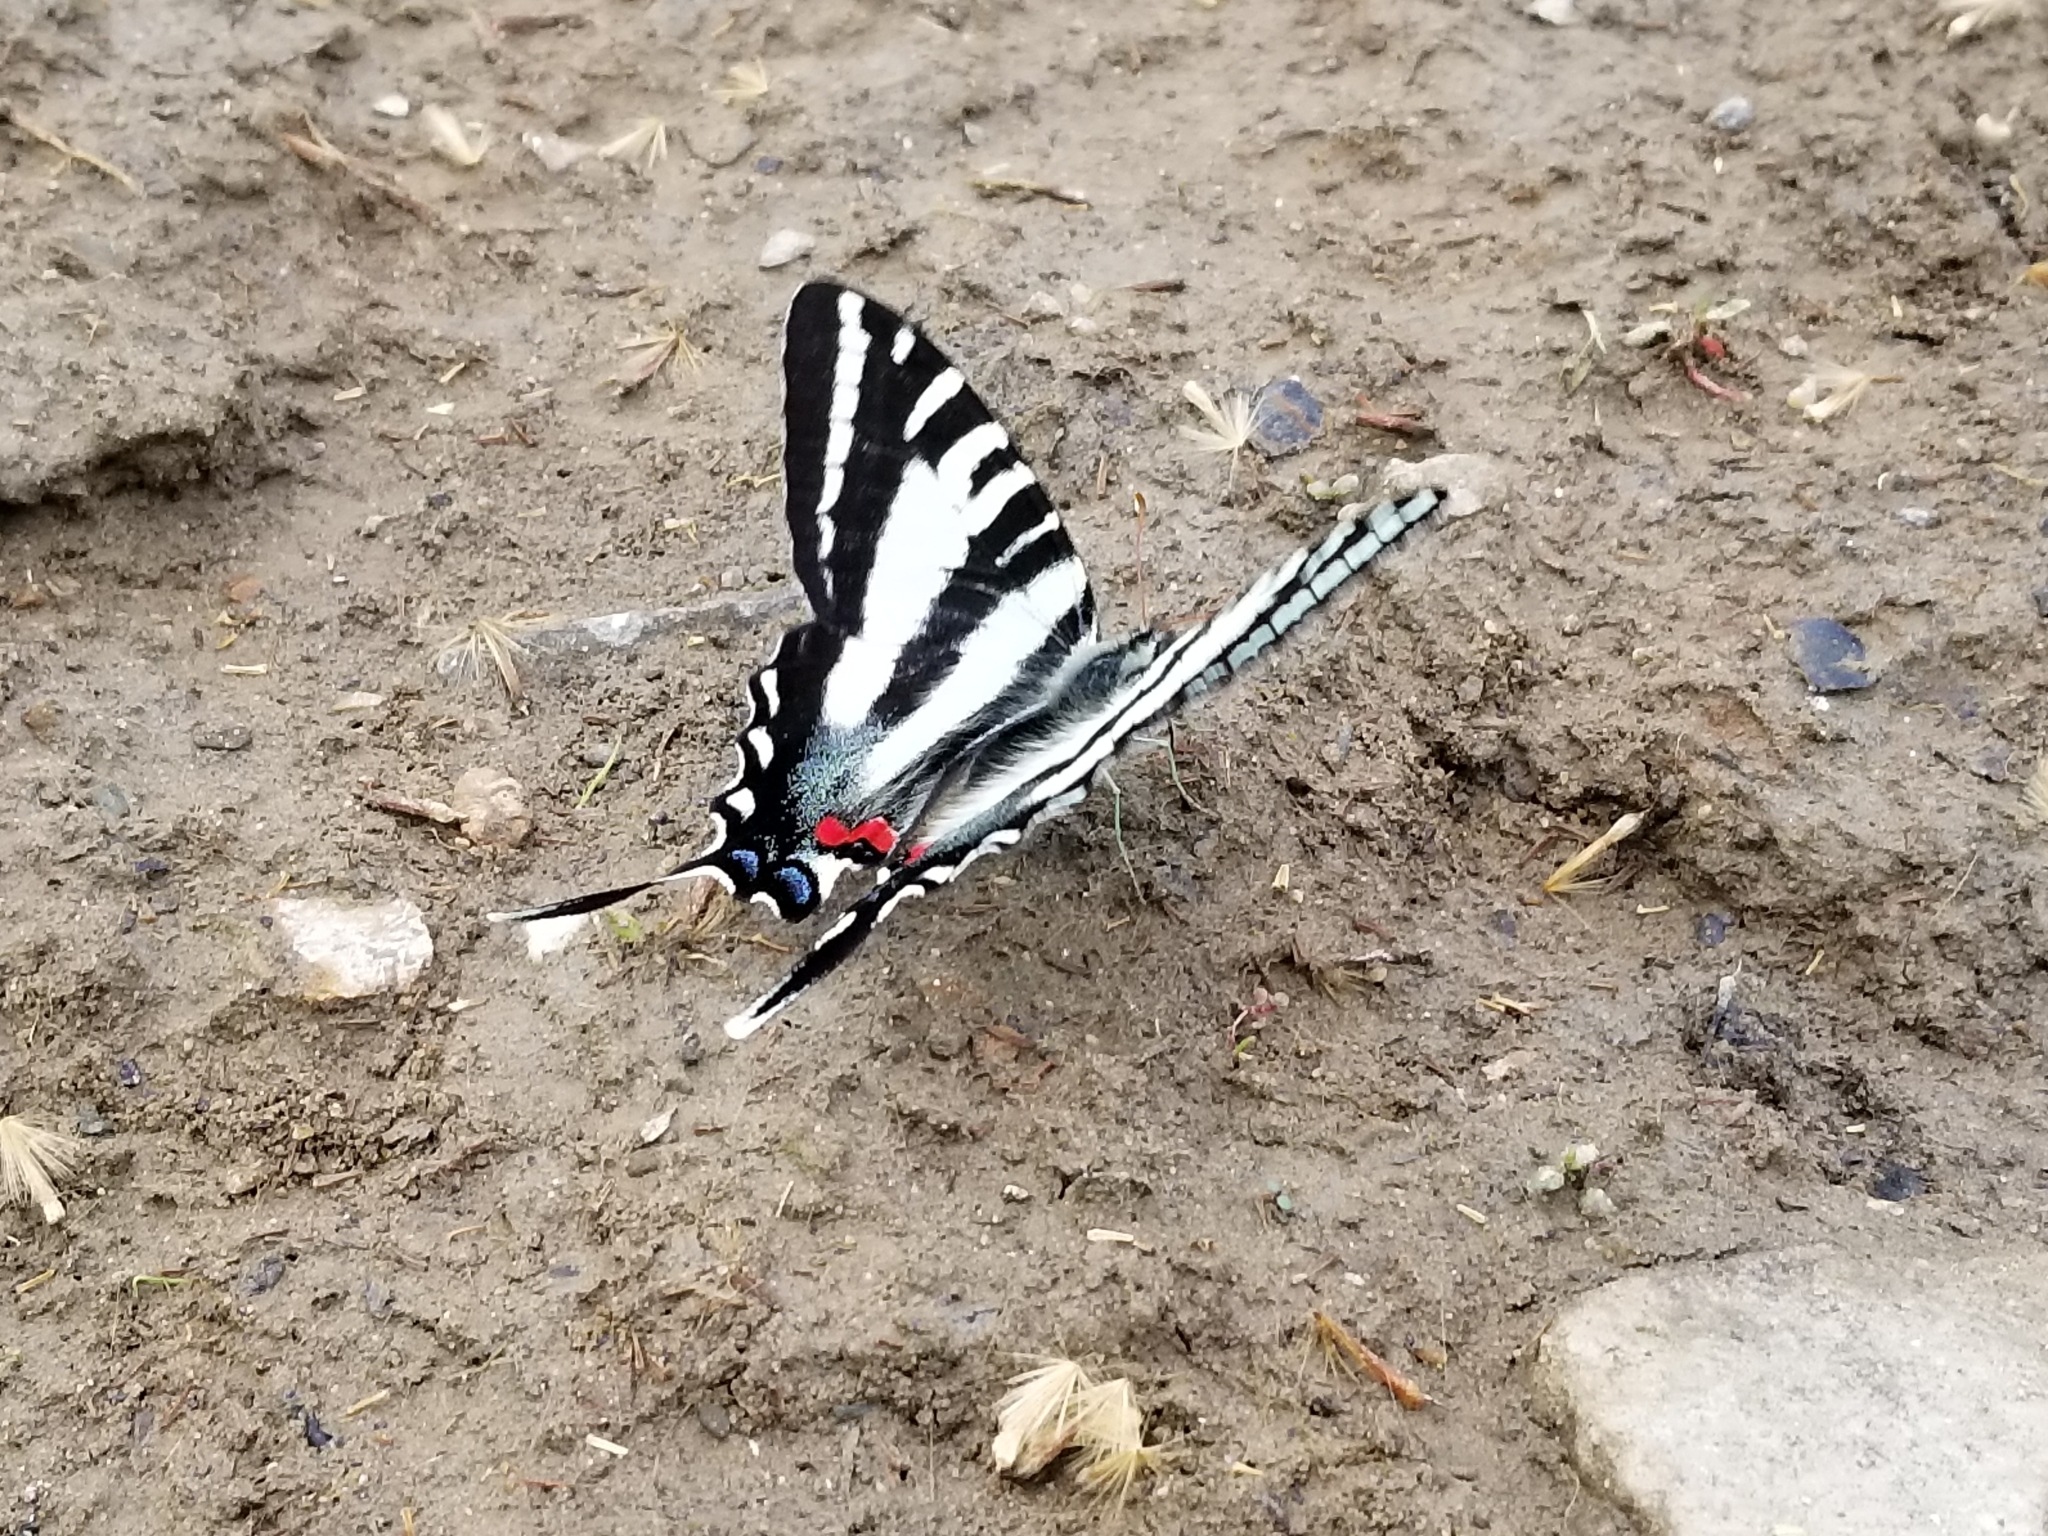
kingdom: Animalia
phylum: Arthropoda
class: Insecta
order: Lepidoptera
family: Papilionidae
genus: Protographium
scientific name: Protographium marcellus
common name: Zebra swallowtail
